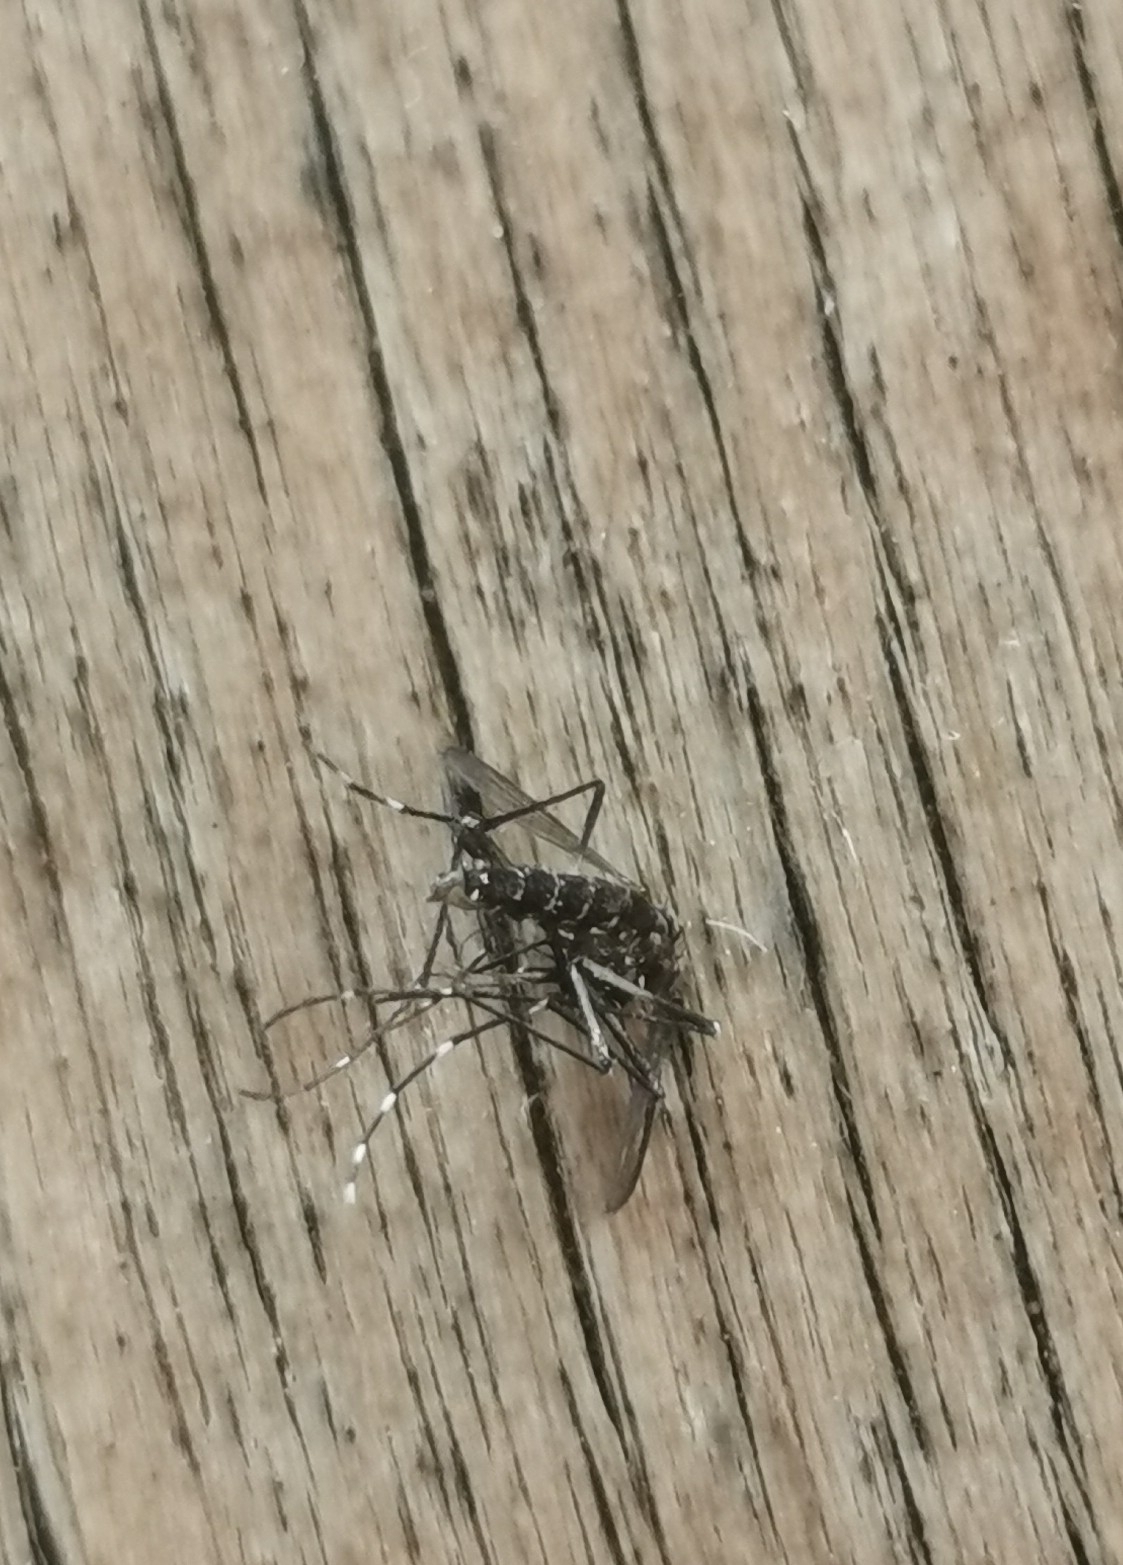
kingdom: Animalia
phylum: Arthropoda
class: Insecta
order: Diptera
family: Culicidae
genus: Aedes
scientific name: Aedes albopictus
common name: Tiger mosquito
